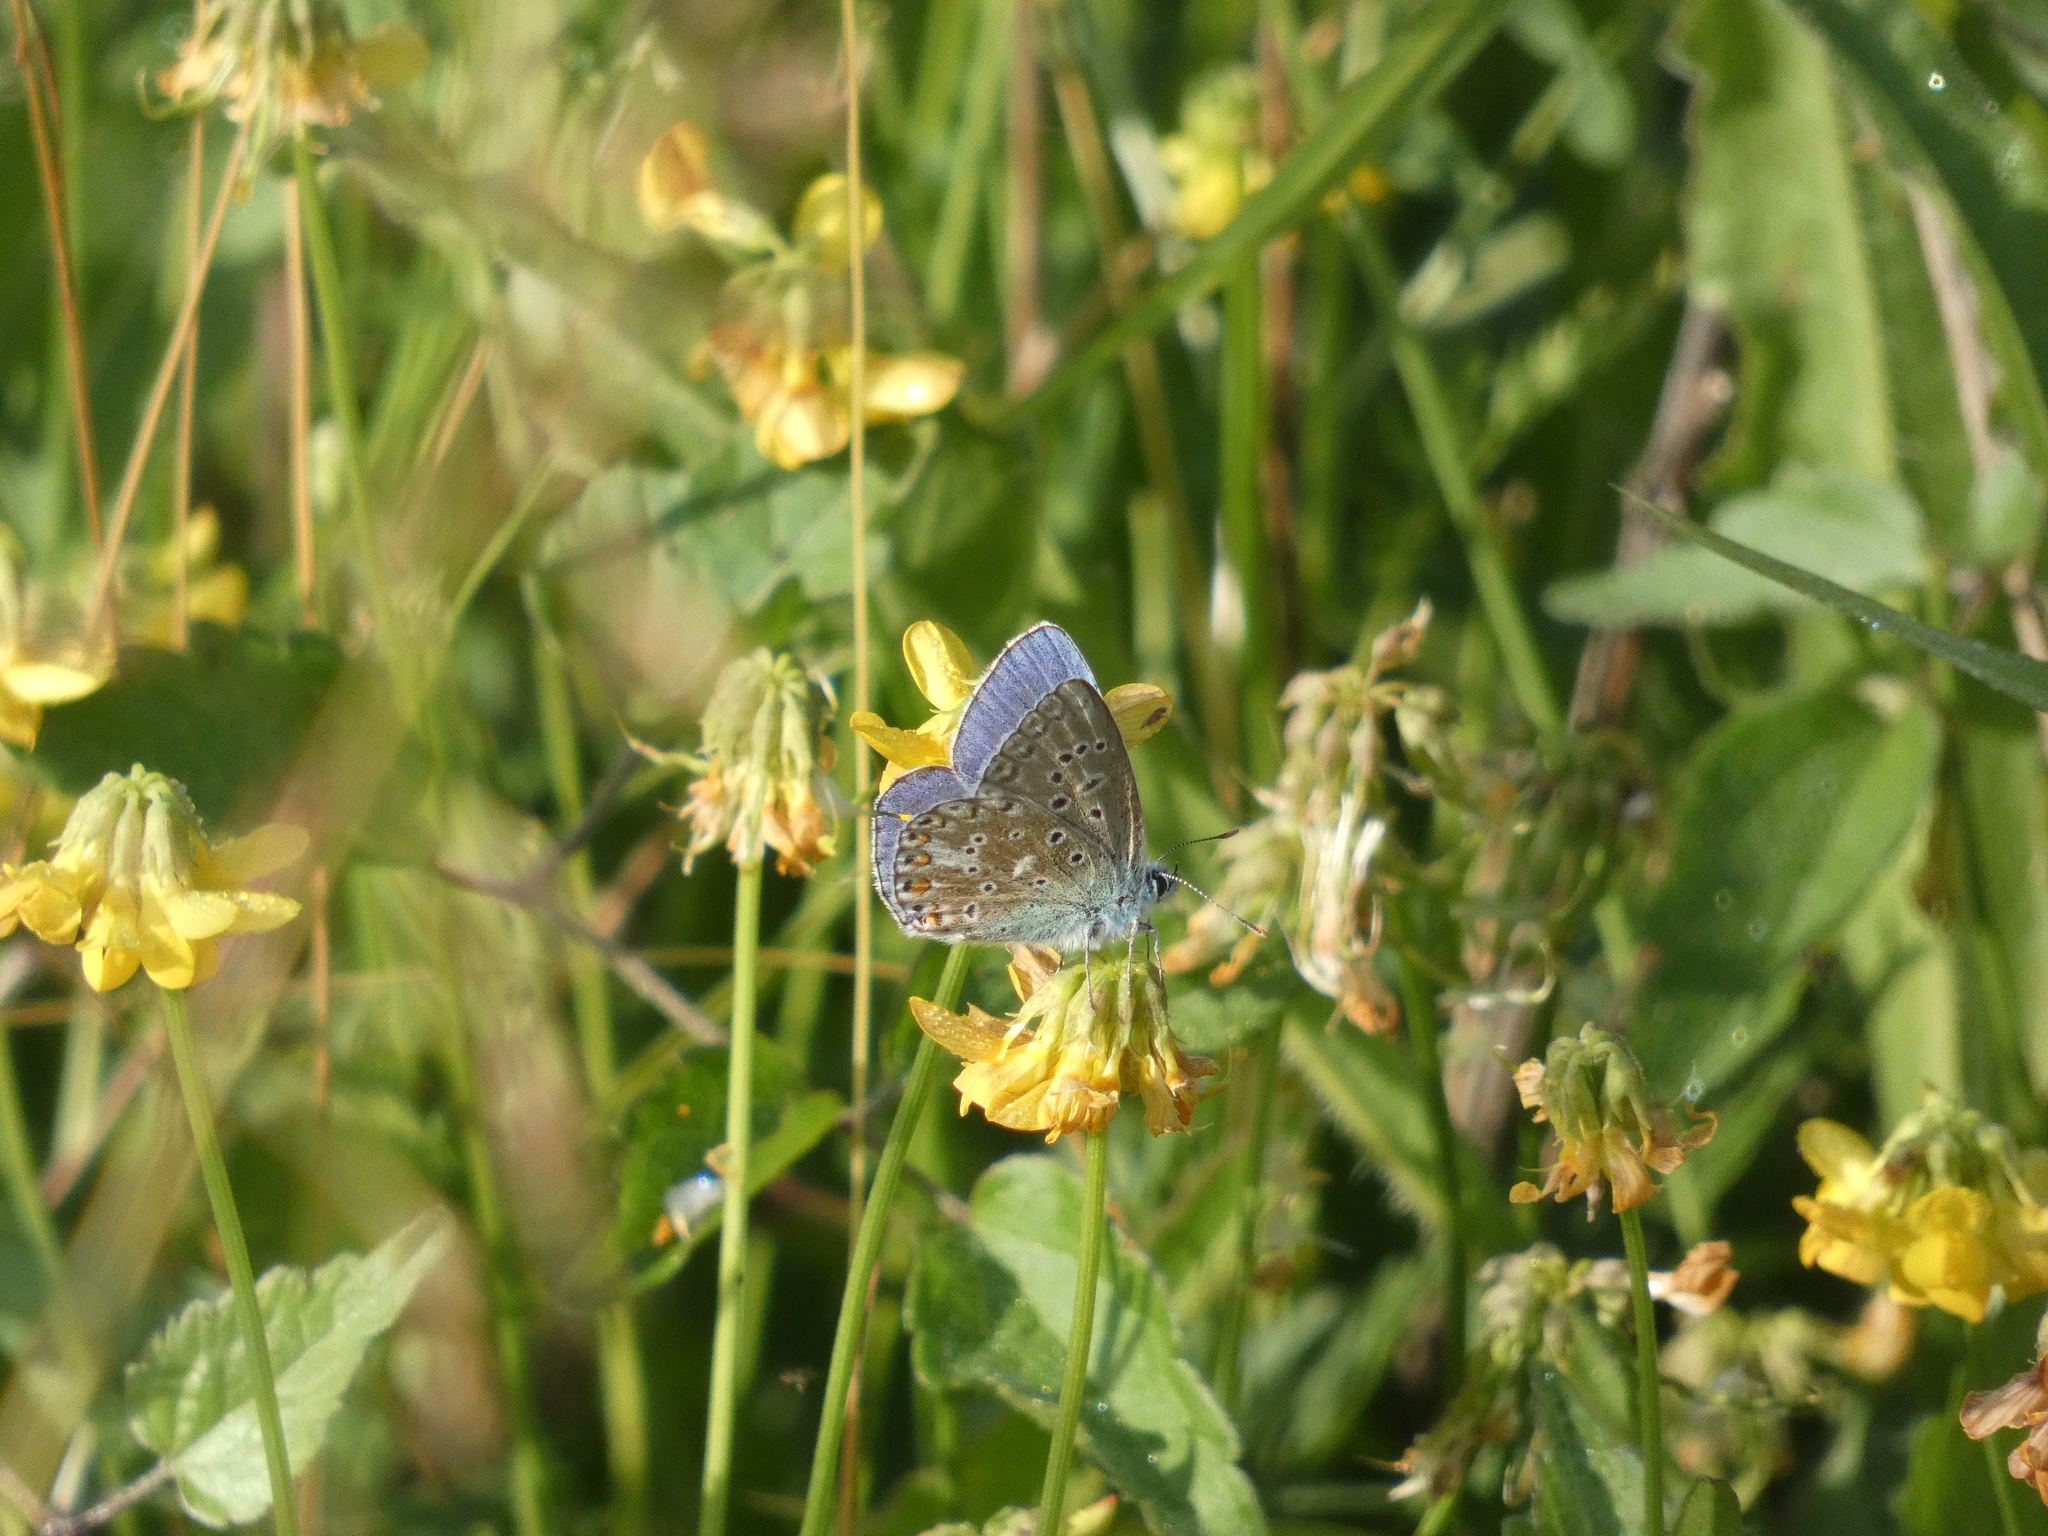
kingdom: Animalia
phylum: Arthropoda
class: Insecta
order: Lepidoptera
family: Lycaenidae
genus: Lysandra
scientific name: Lysandra bellargus
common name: Adonis blue
